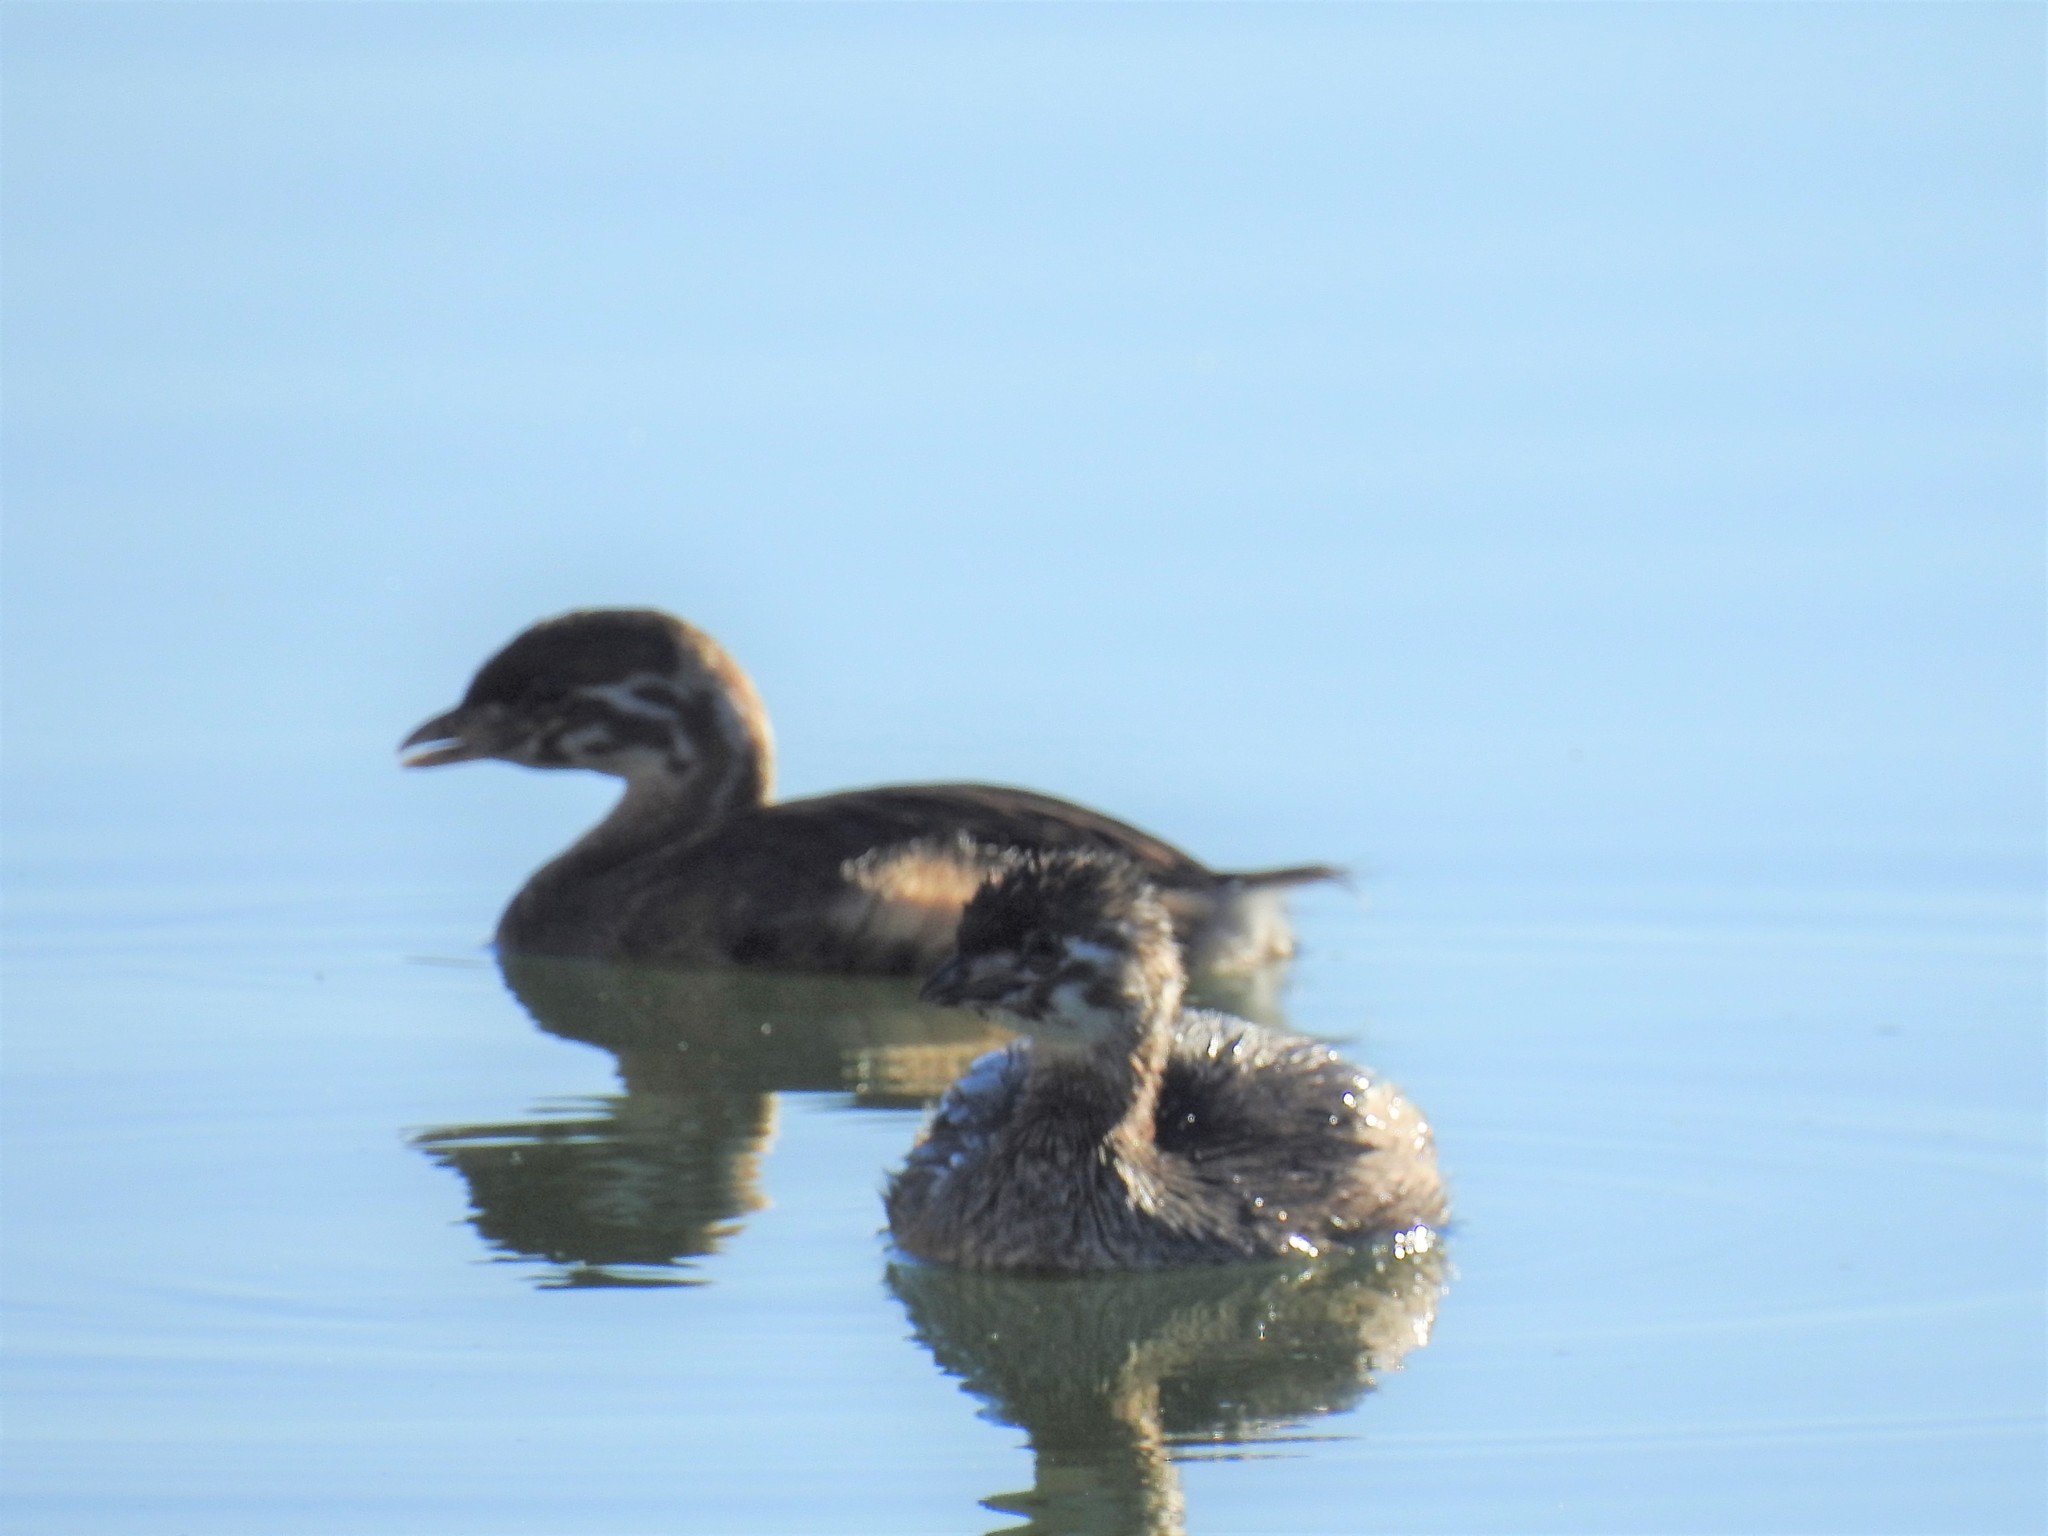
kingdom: Animalia
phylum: Chordata
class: Aves
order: Podicipediformes
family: Podicipedidae
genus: Podilymbus
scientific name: Podilymbus podiceps
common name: Pied-billed grebe
